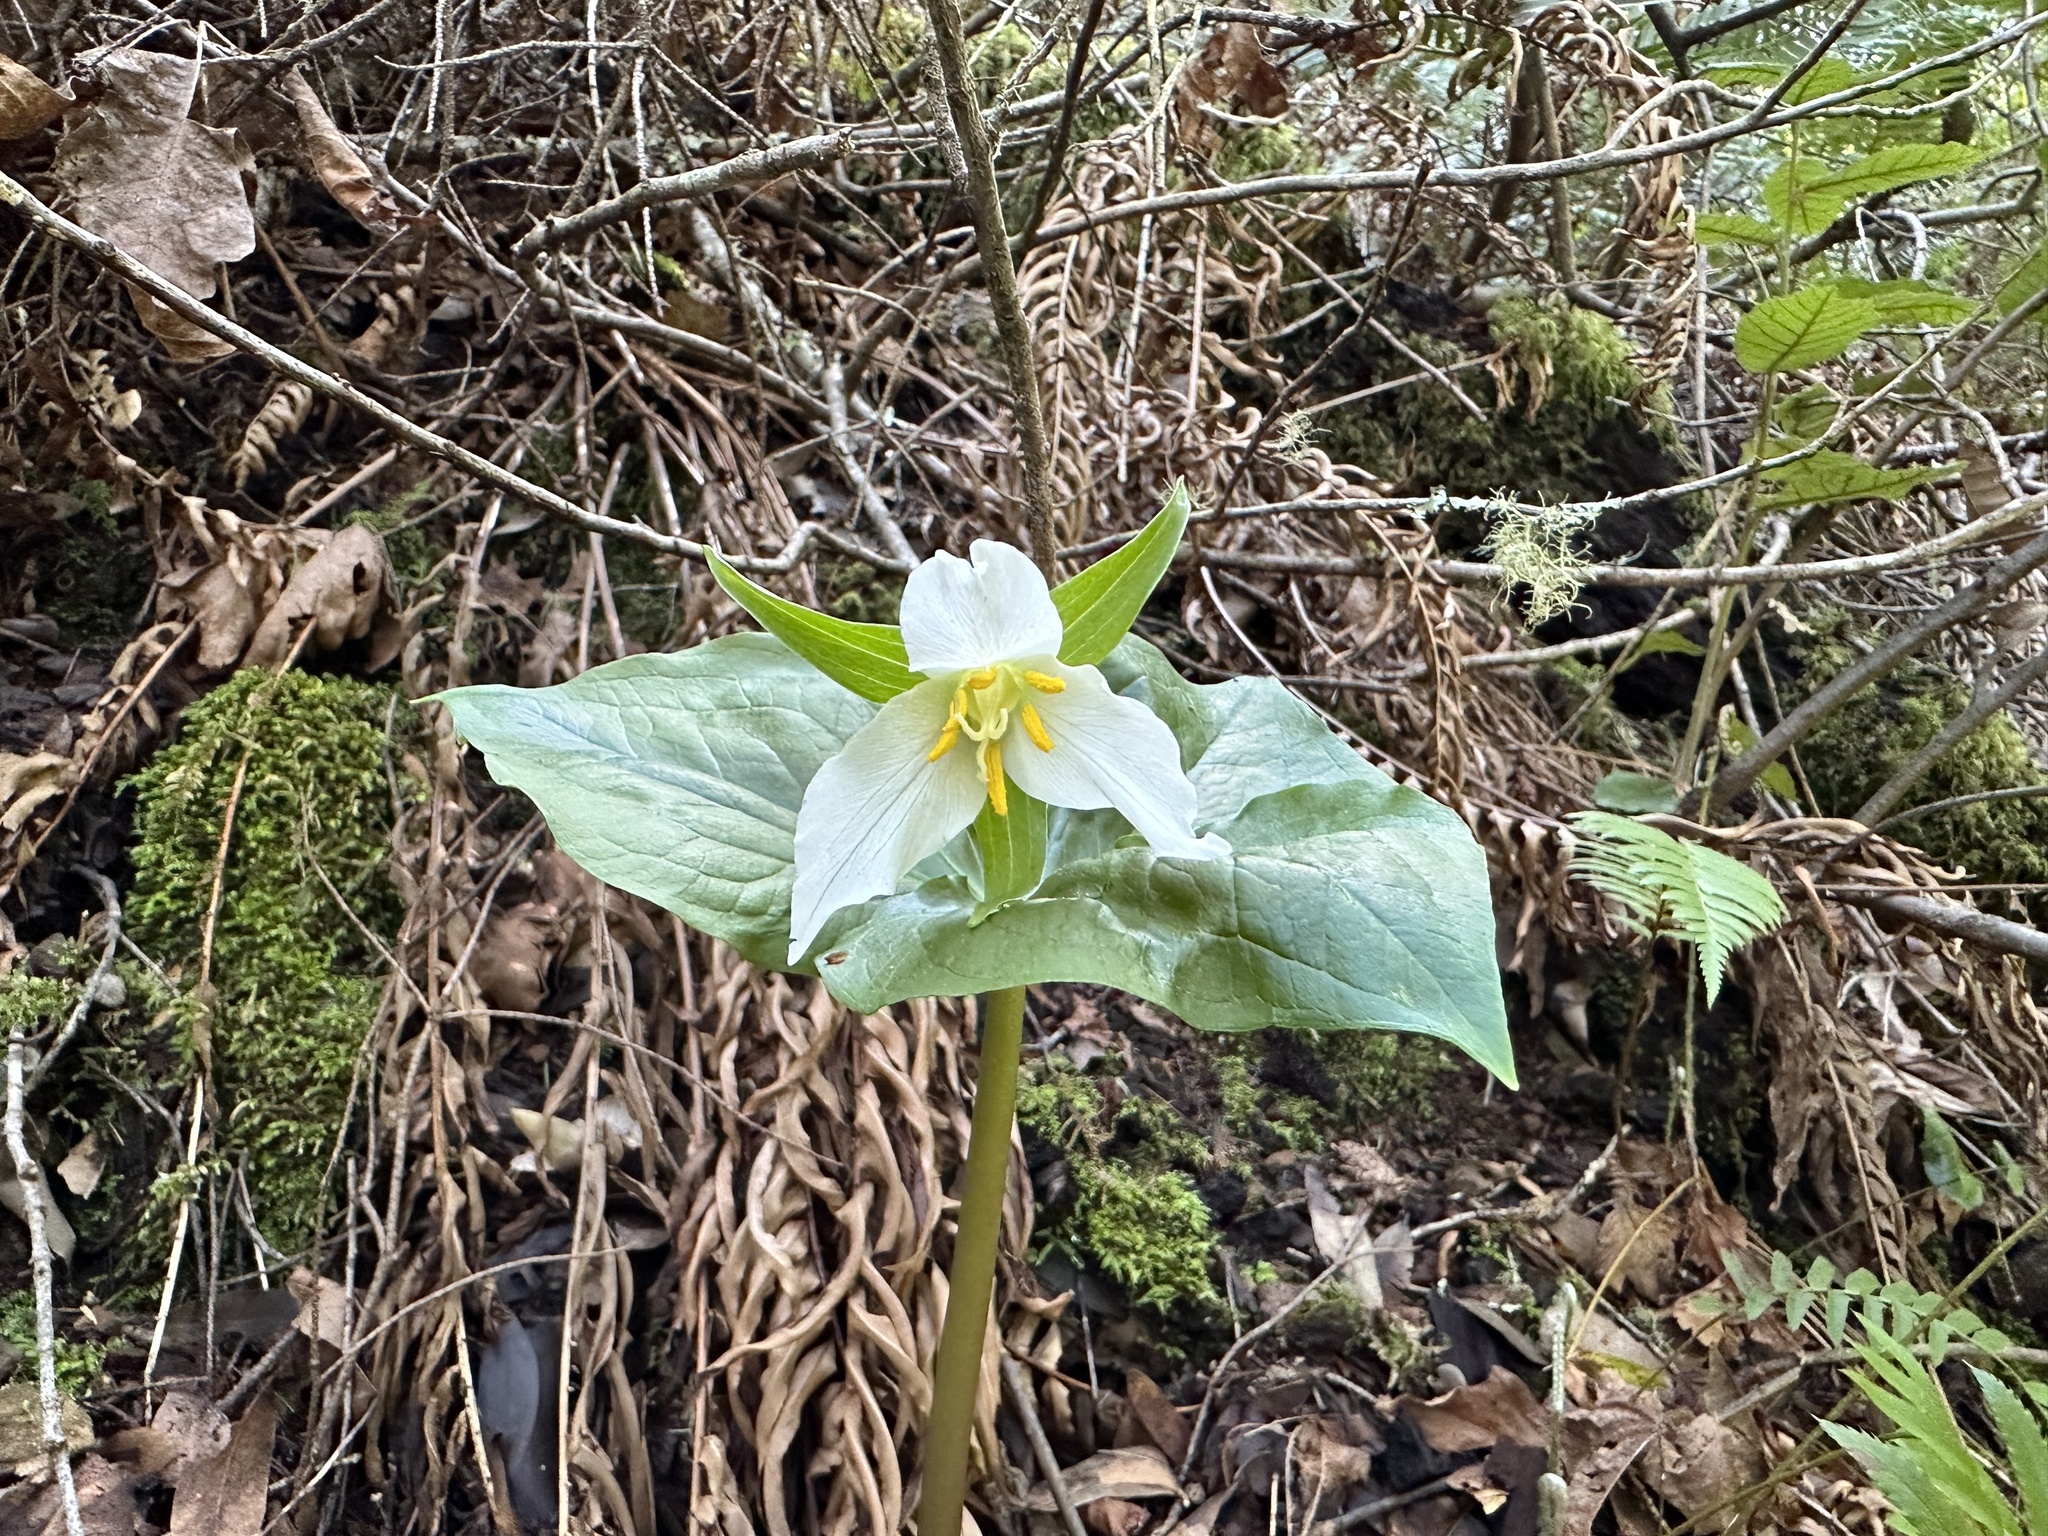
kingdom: Plantae
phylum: Tracheophyta
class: Liliopsida
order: Liliales
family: Melanthiaceae
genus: Trillium
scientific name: Trillium ovatum
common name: Pacific trillium
